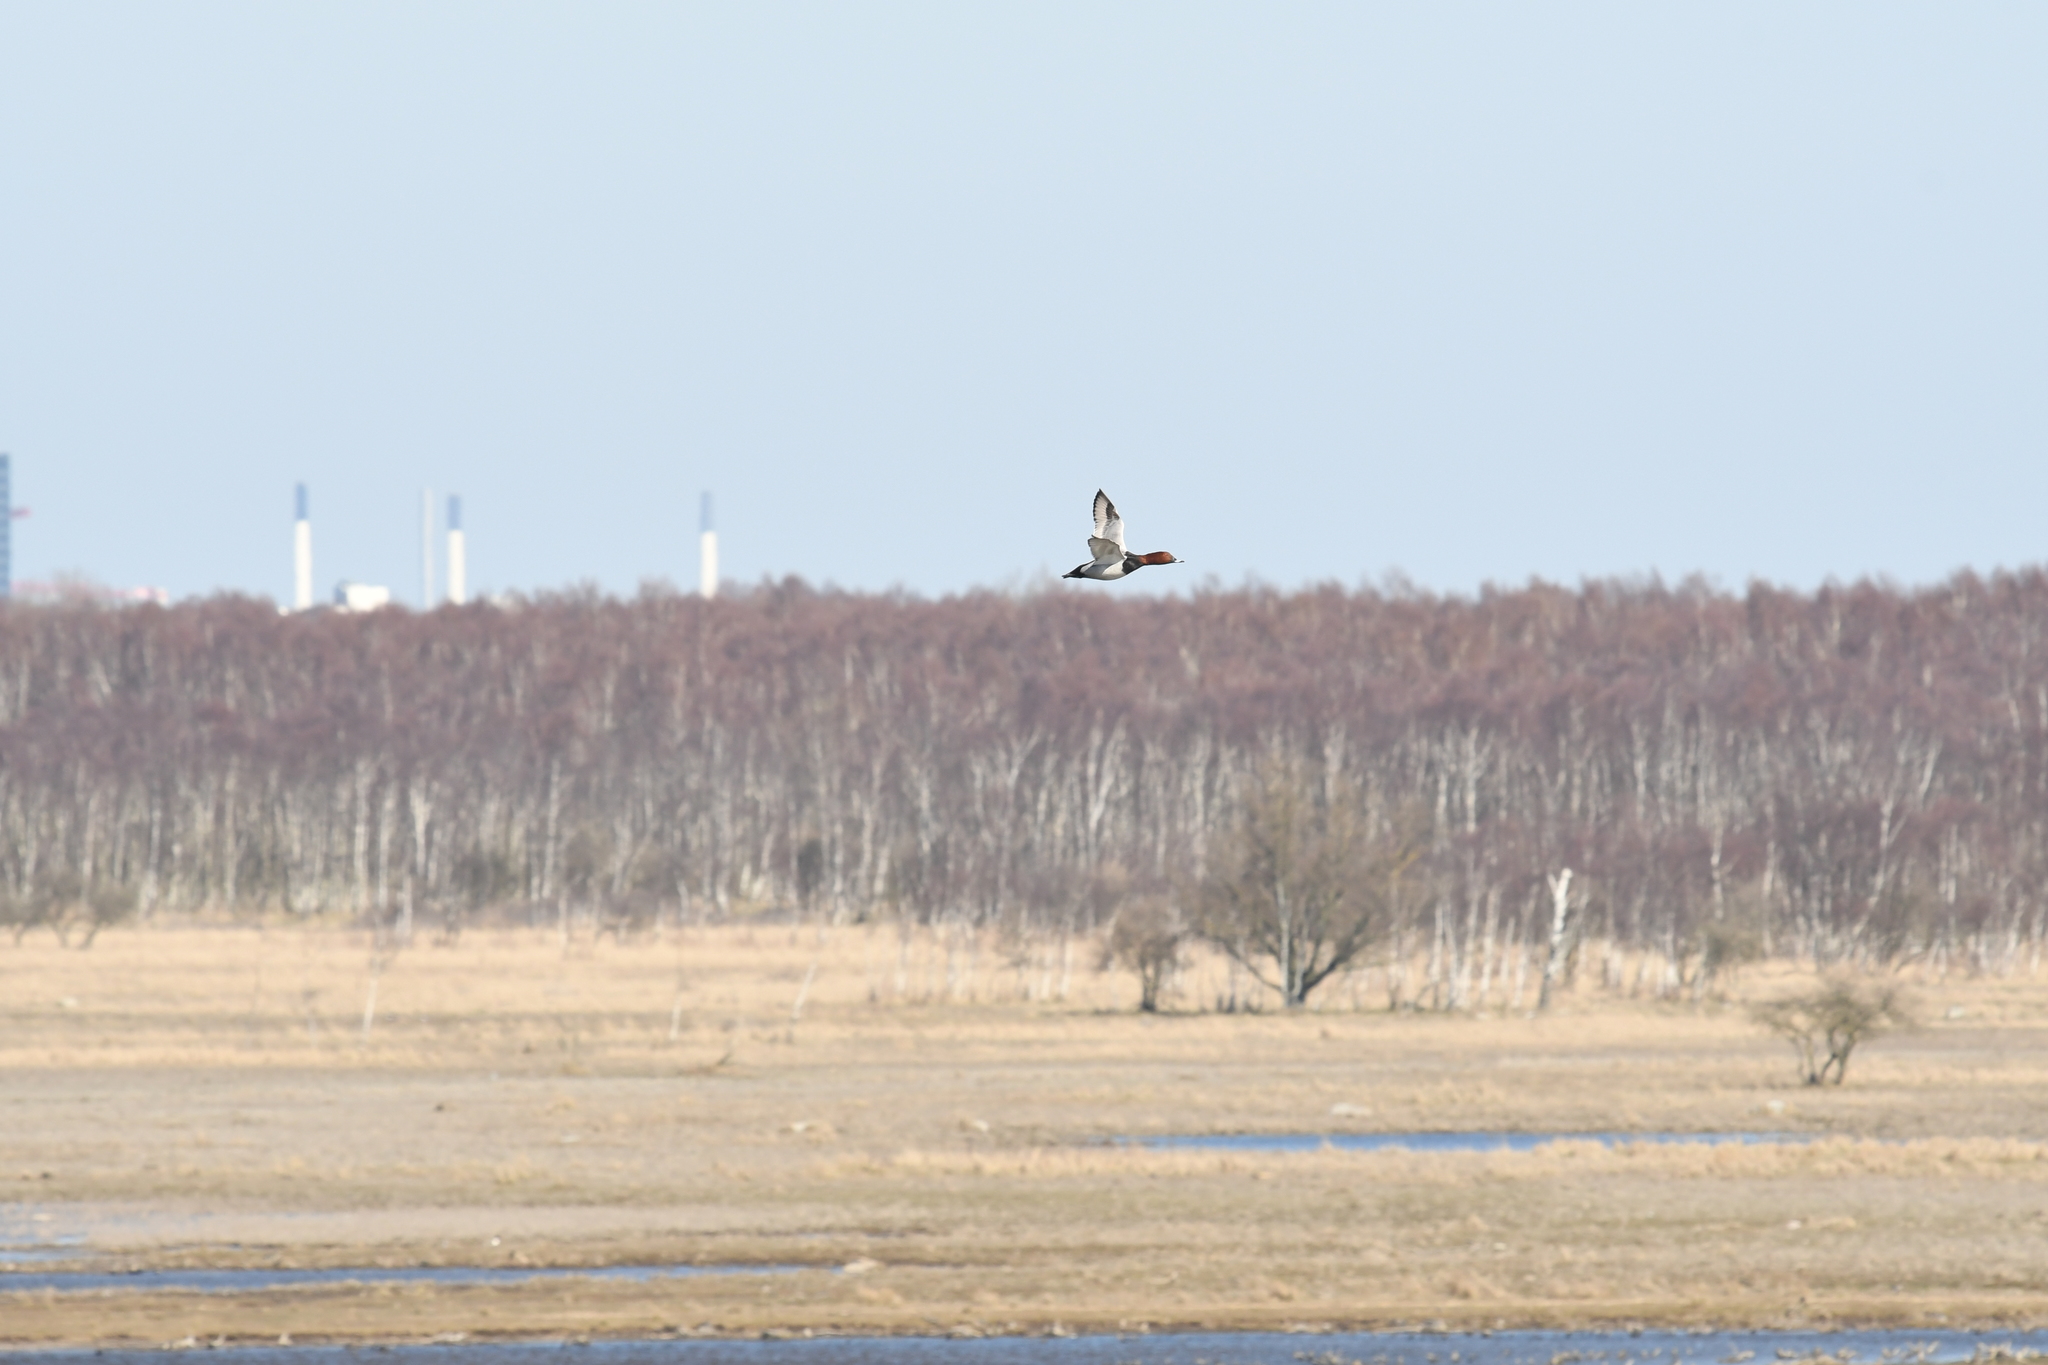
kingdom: Animalia
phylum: Chordata
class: Aves
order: Anseriformes
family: Anatidae
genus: Aythya
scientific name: Aythya ferina
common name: Common pochard
